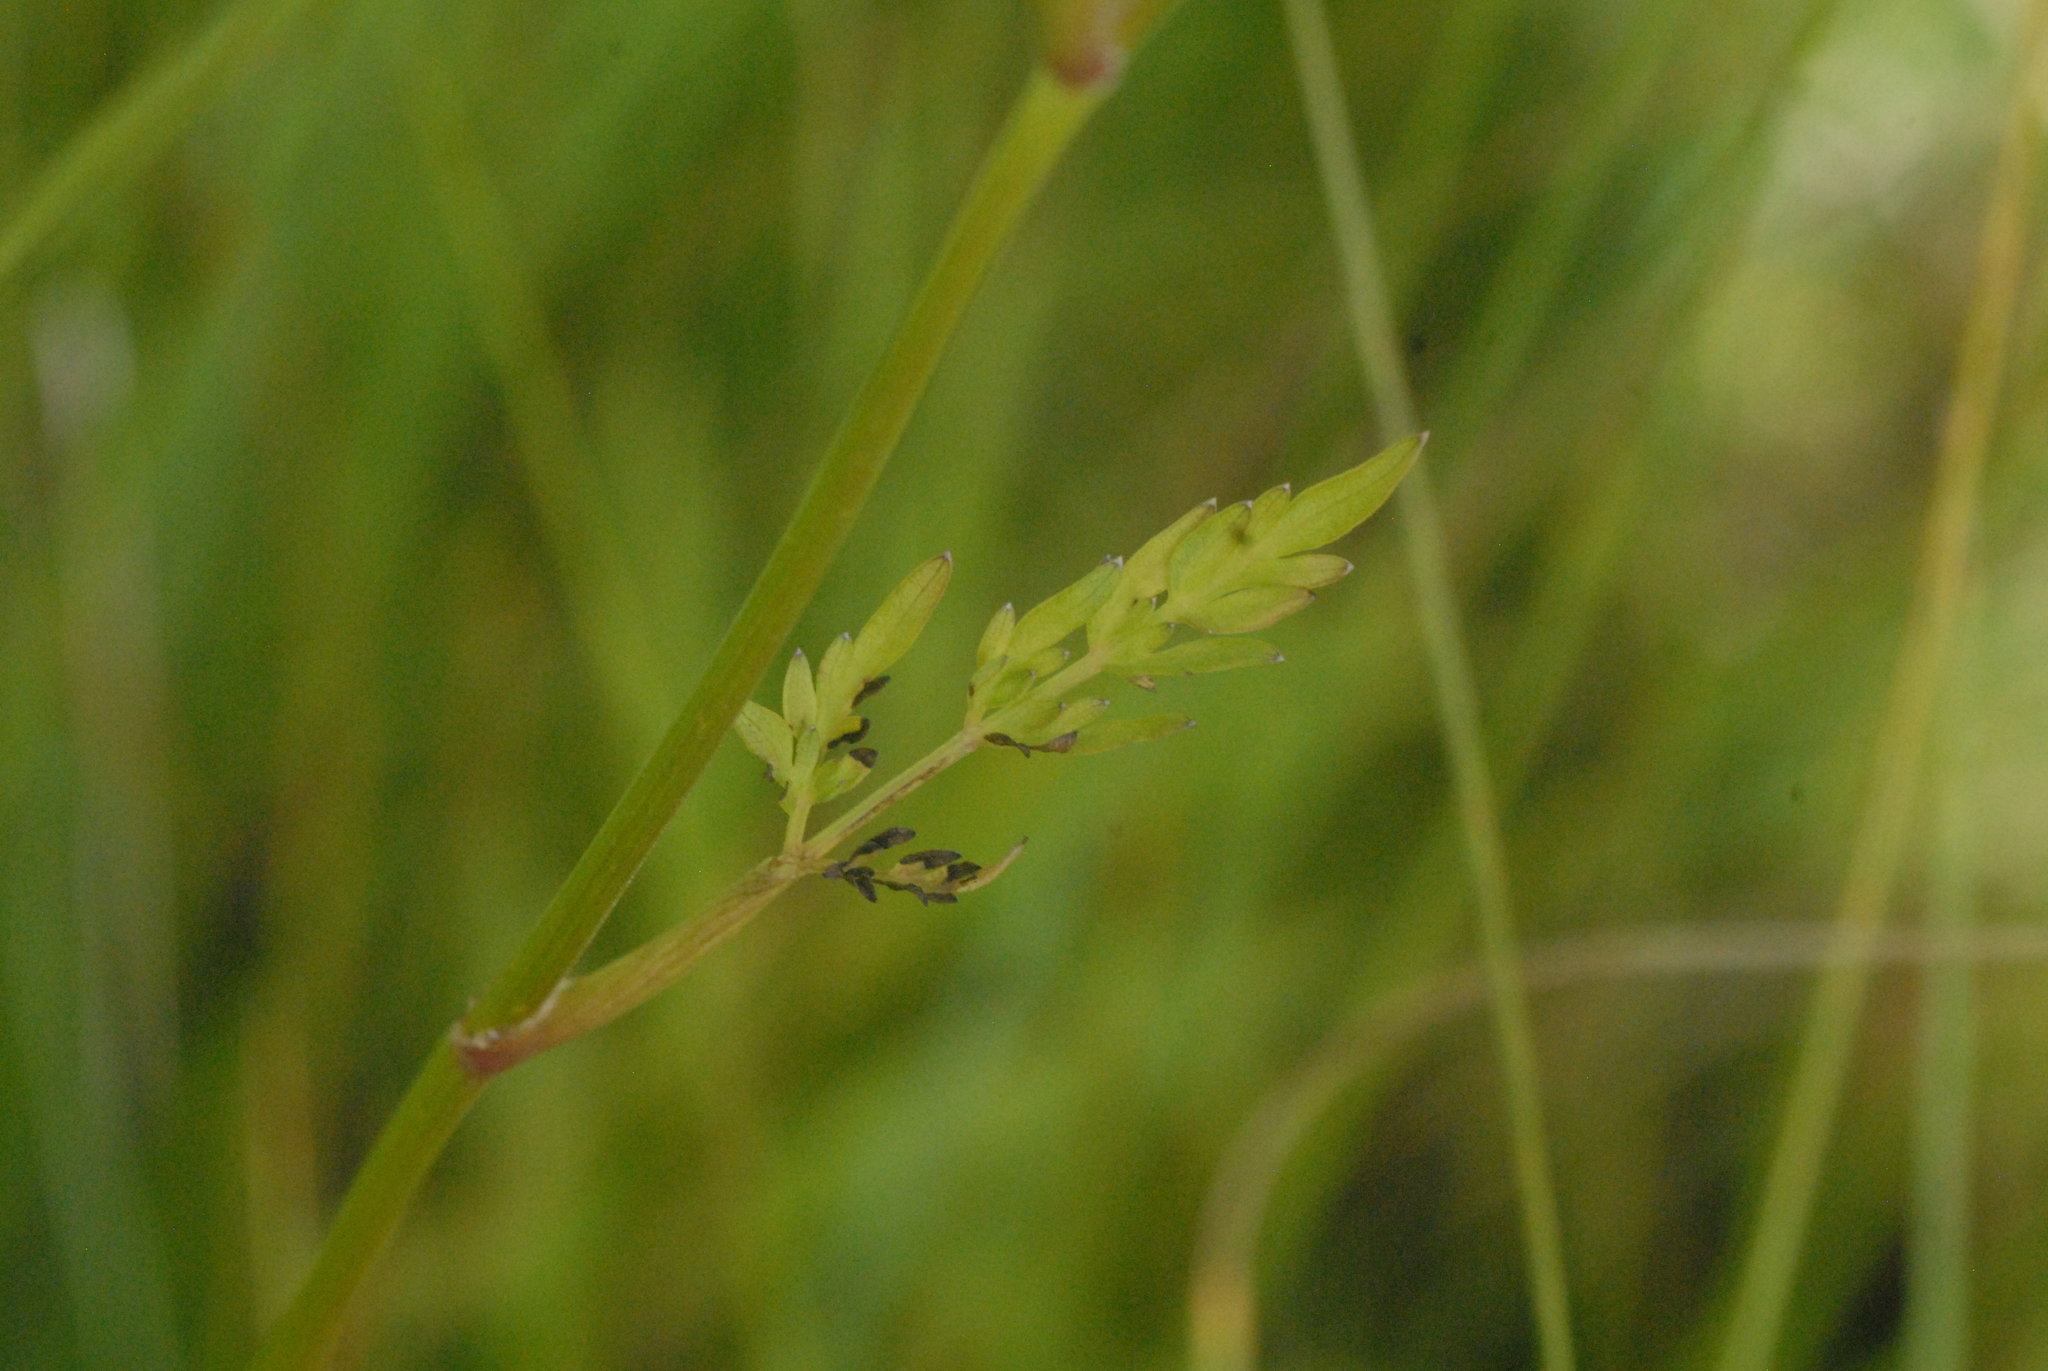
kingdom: Plantae
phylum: Tracheophyta
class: Magnoliopsida
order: Apiales
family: Apiaceae
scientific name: Apiaceae
